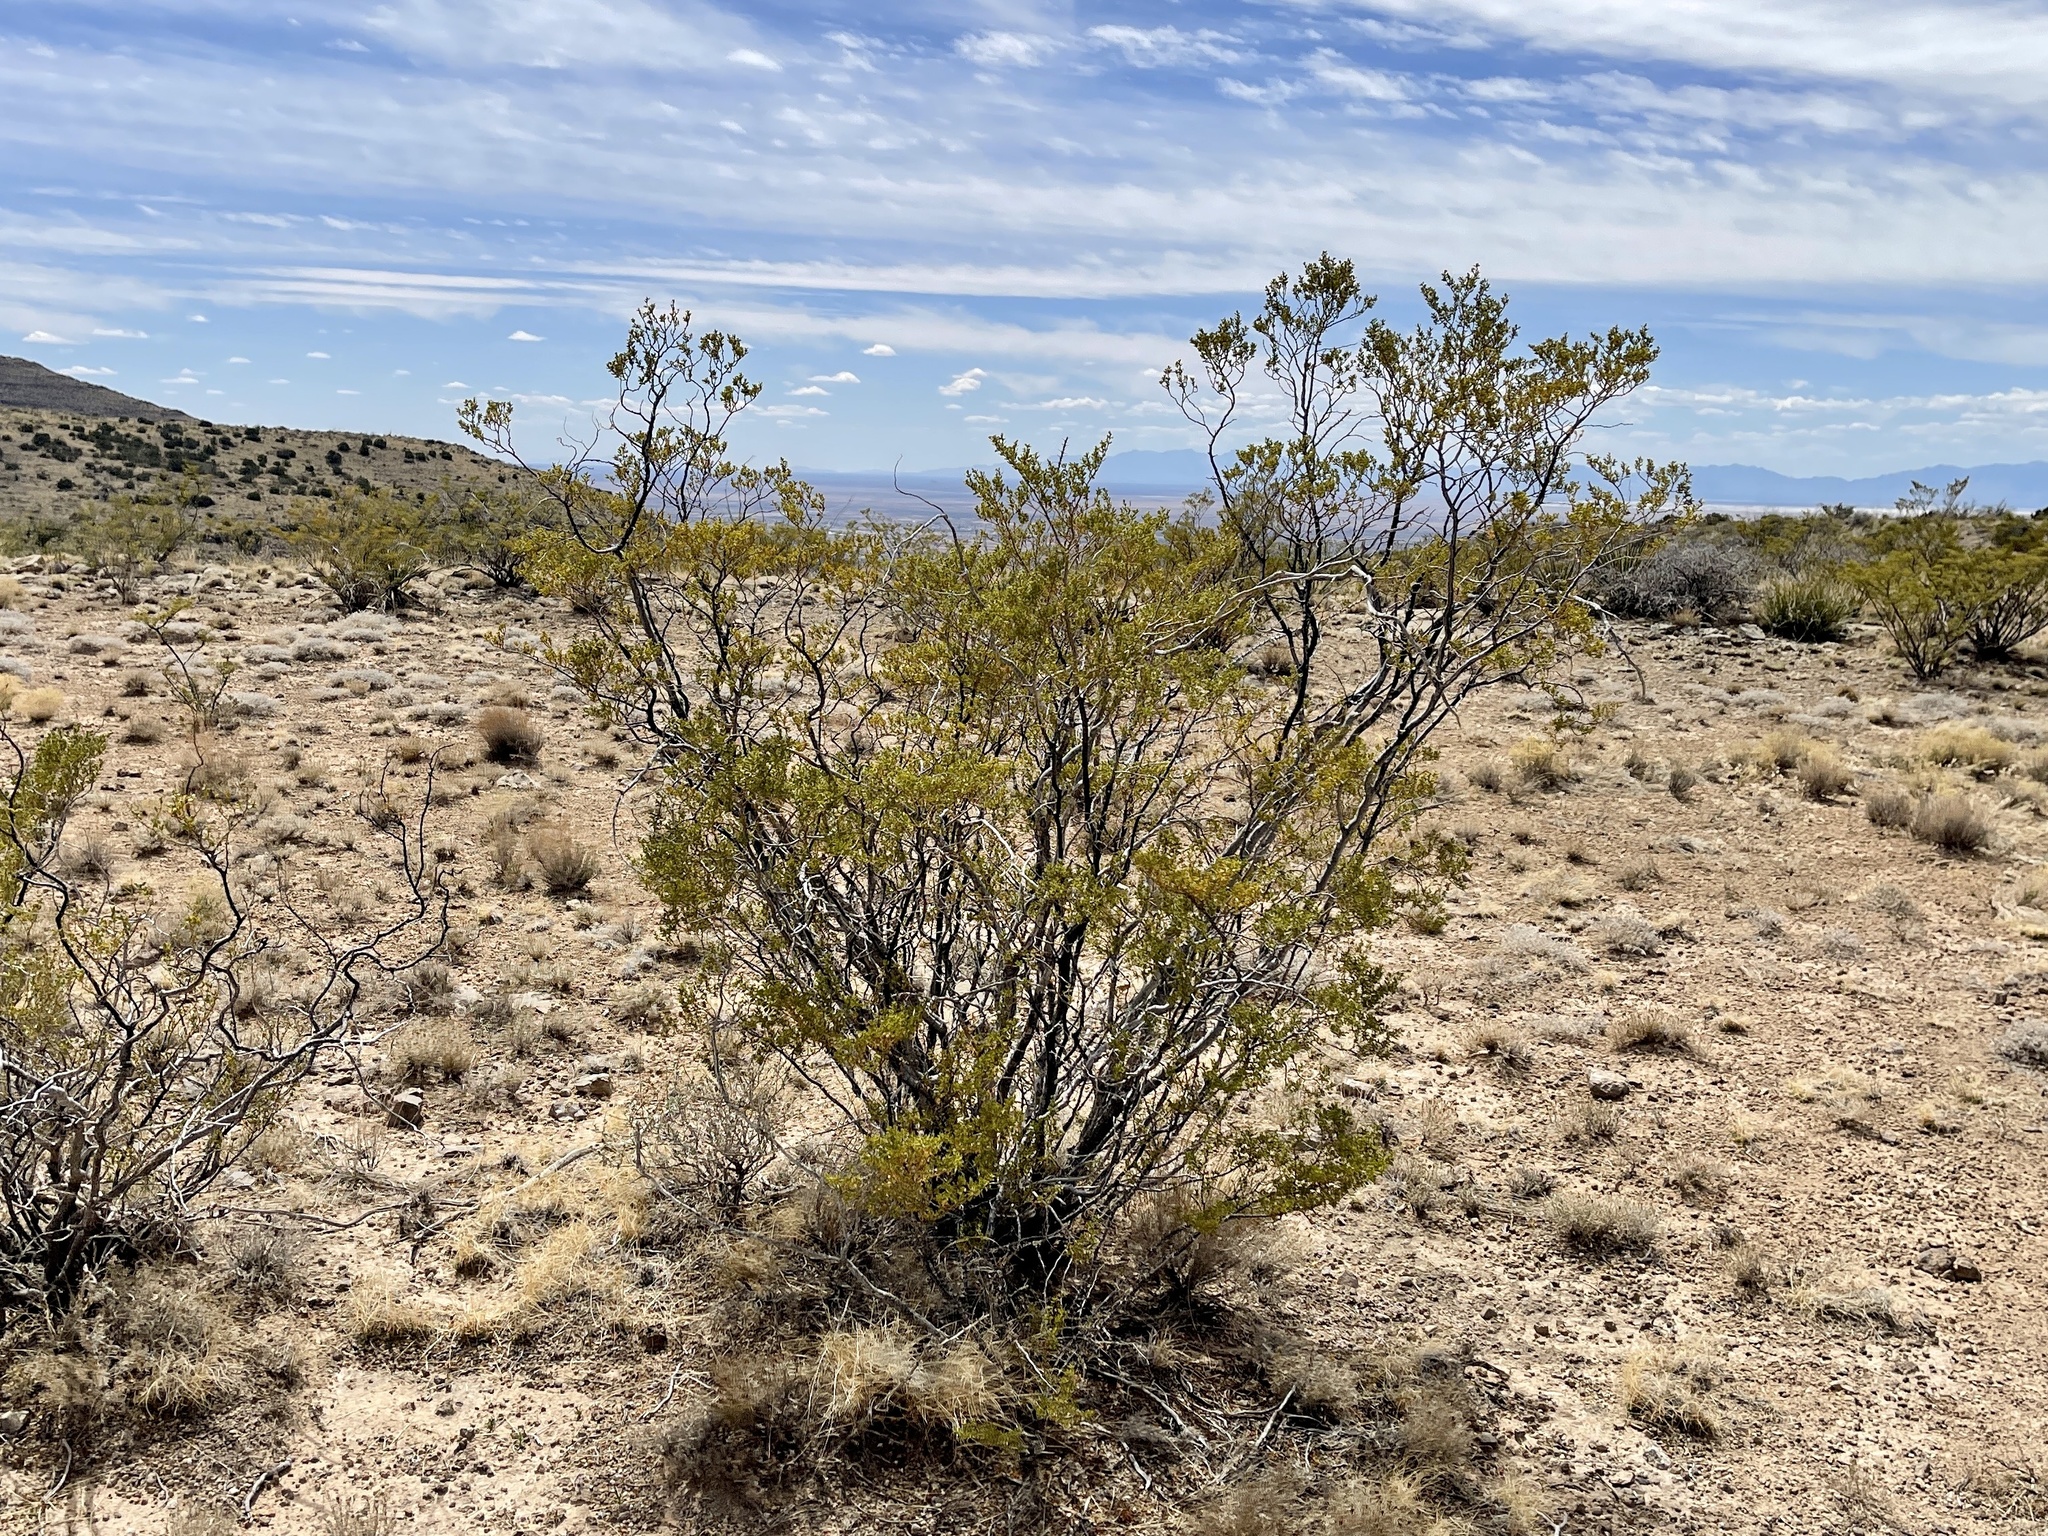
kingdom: Plantae
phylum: Tracheophyta
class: Magnoliopsida
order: Zygophyllales
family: Zygophyllaceae
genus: Larrea
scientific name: Larrea tridentata
